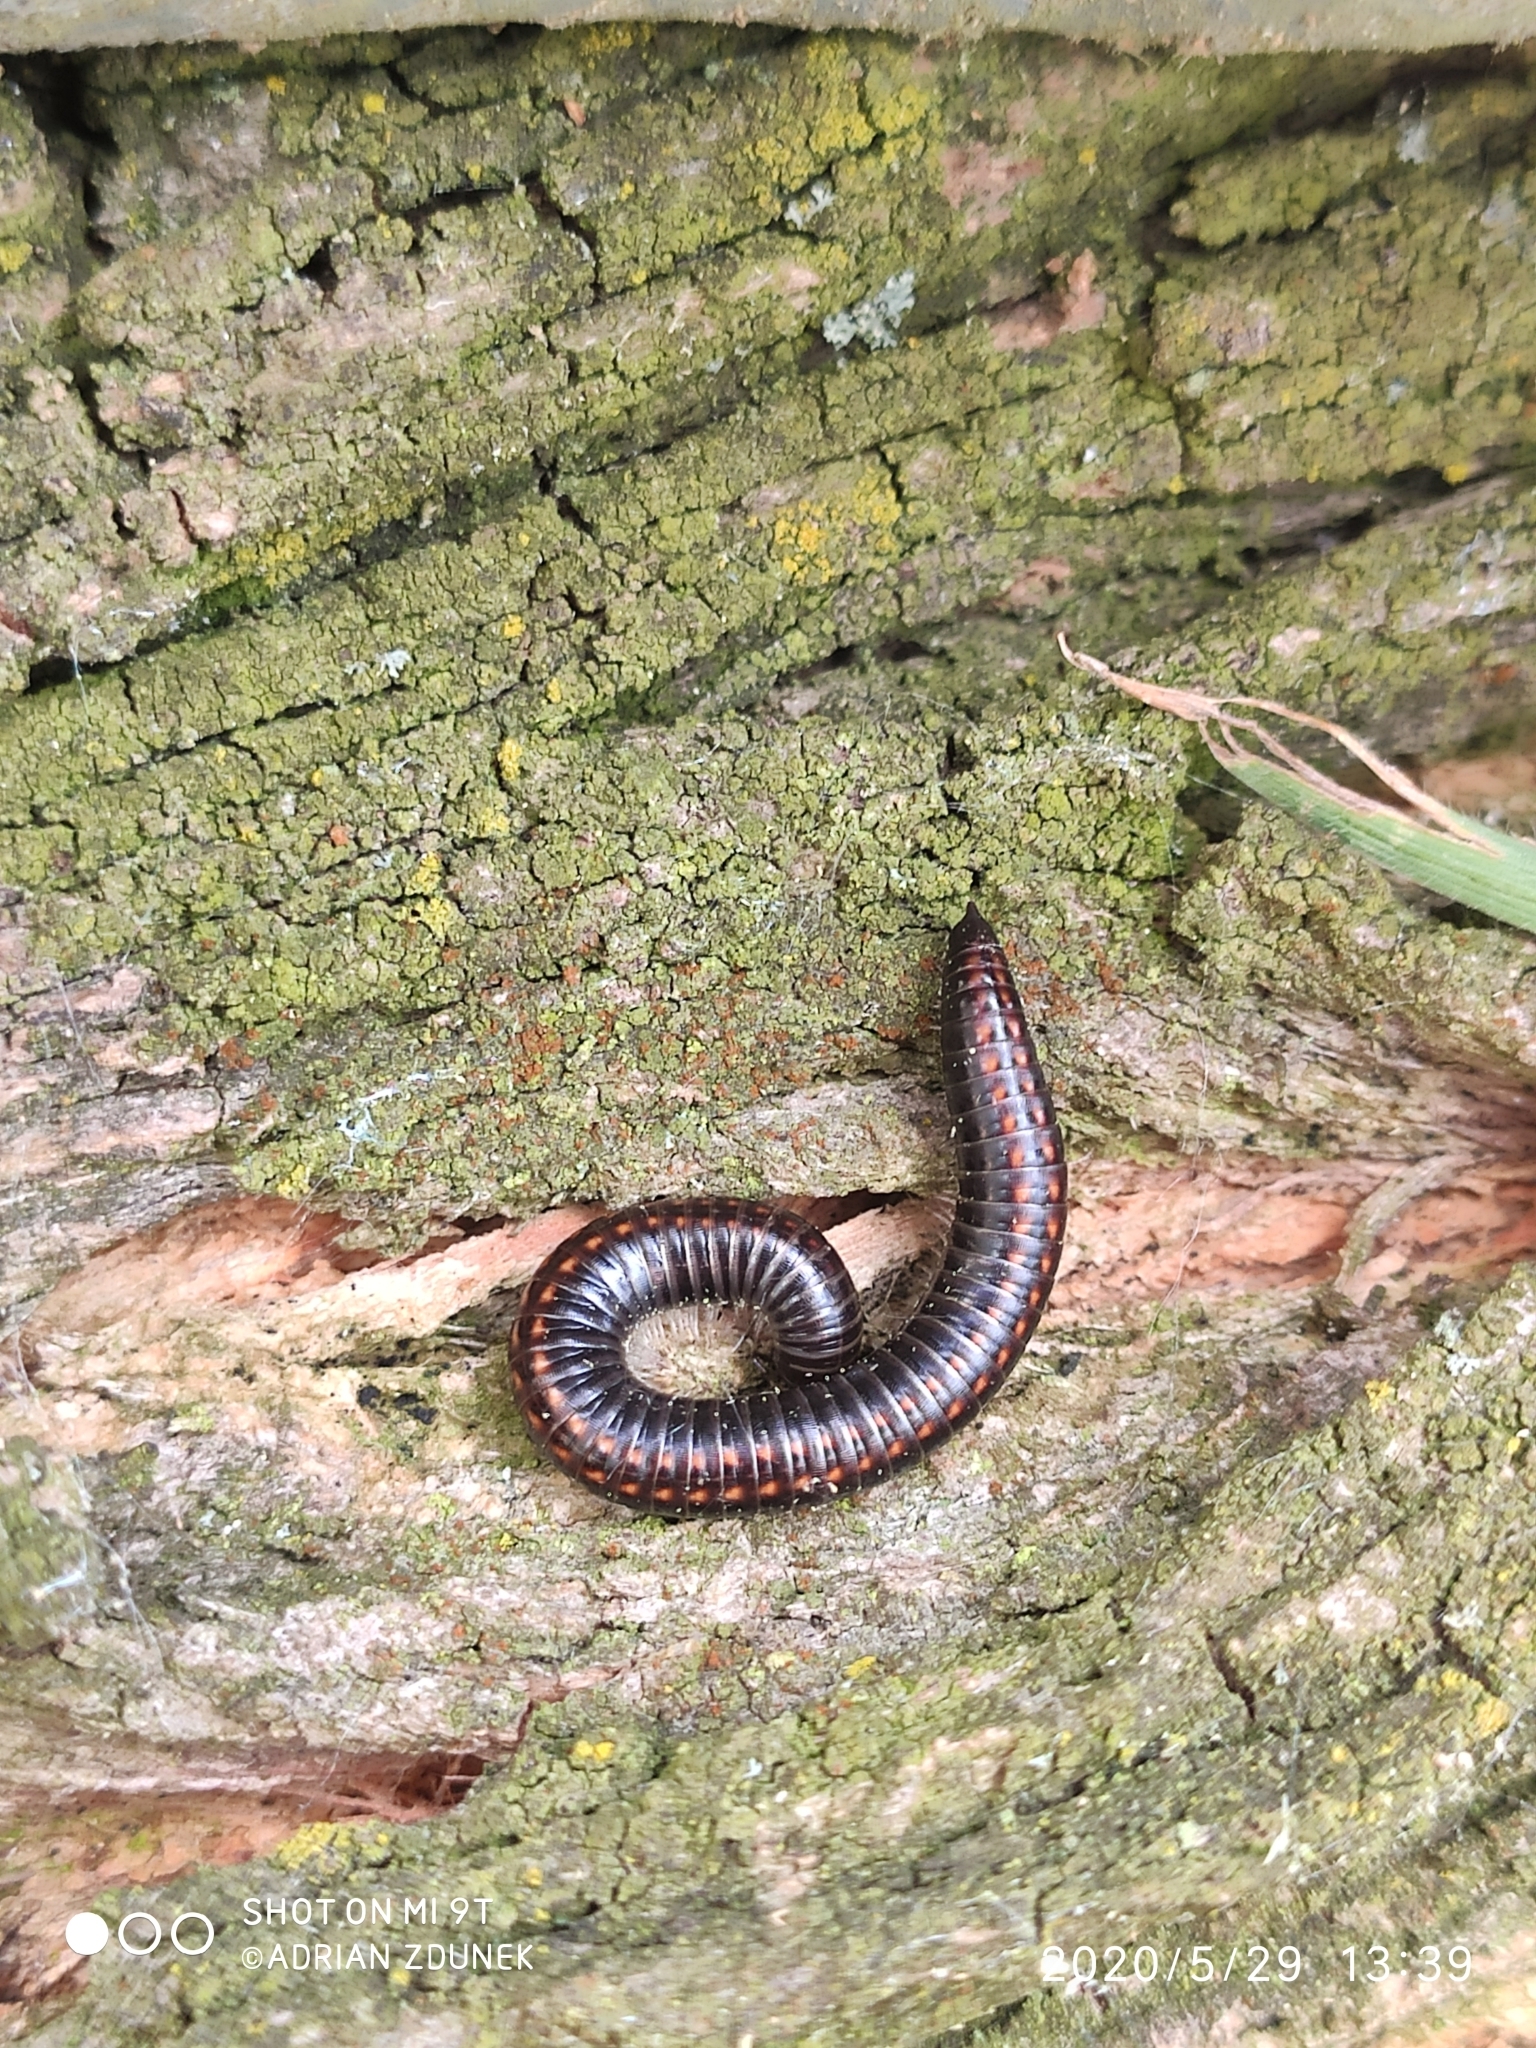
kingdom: Animalia
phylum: Arthropoda
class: Diplopoda
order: Julida
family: Julidae
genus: Ommatoiulus
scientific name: Ommatoiulus sabulosus
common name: Striped millipede
